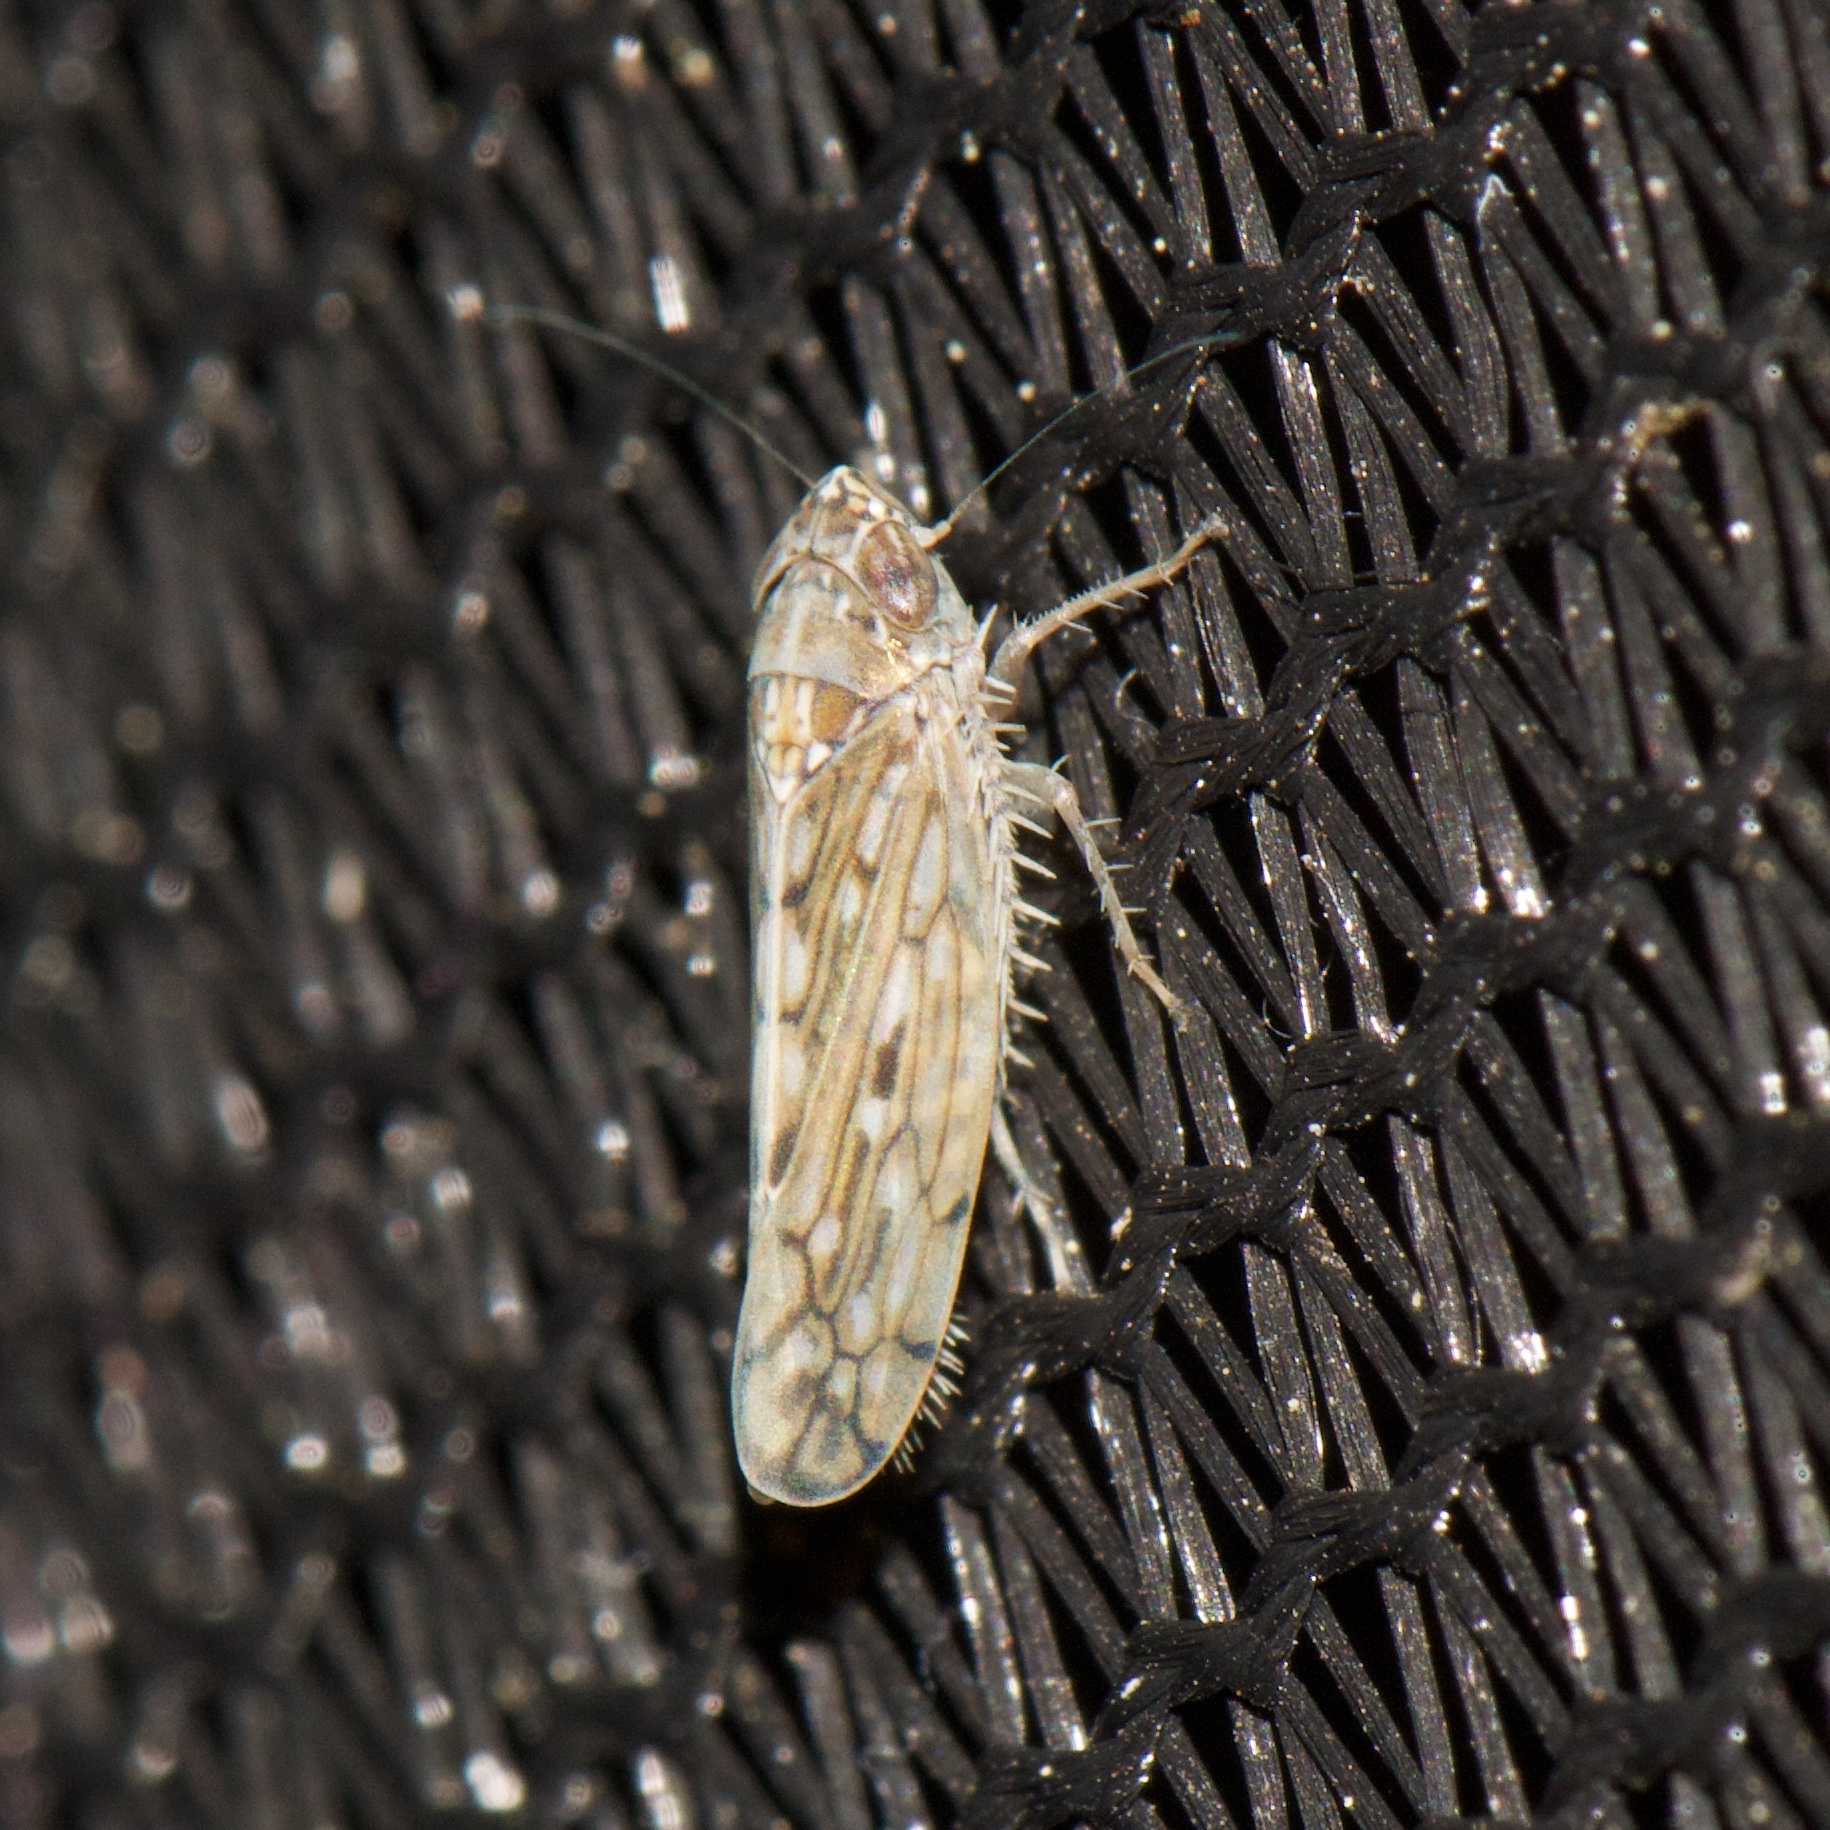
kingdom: Animalia
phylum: Arthropoda
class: Insecta
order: Hemiptera
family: Cicadellidae
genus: Osbornellus
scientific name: Osbornellus clarus
